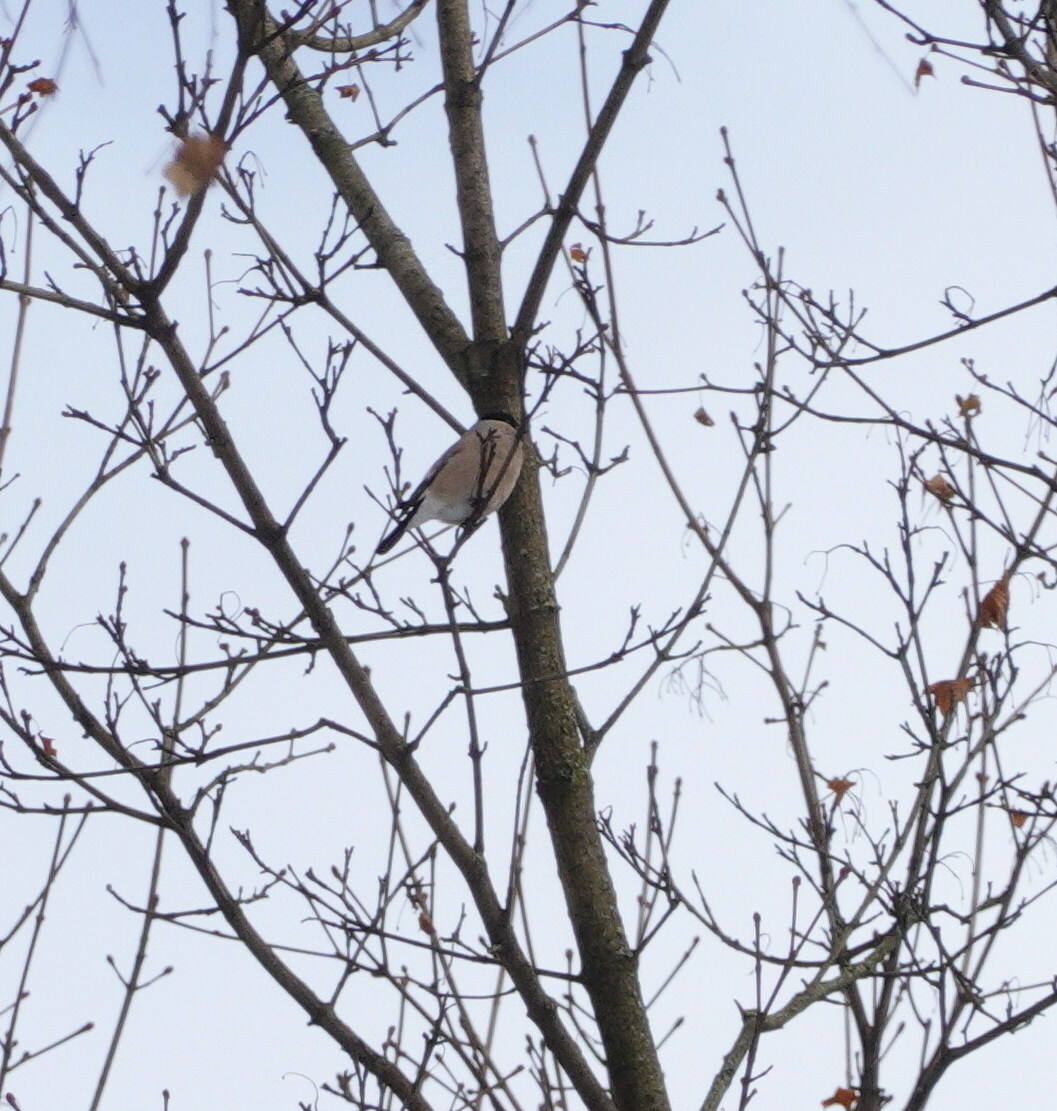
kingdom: Animalia
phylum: Chordata
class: Aves
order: Passeriformes
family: Fringillidae
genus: Pyrrhula
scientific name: Pyrrhula pyrrhula
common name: Eurasian bullfinch
